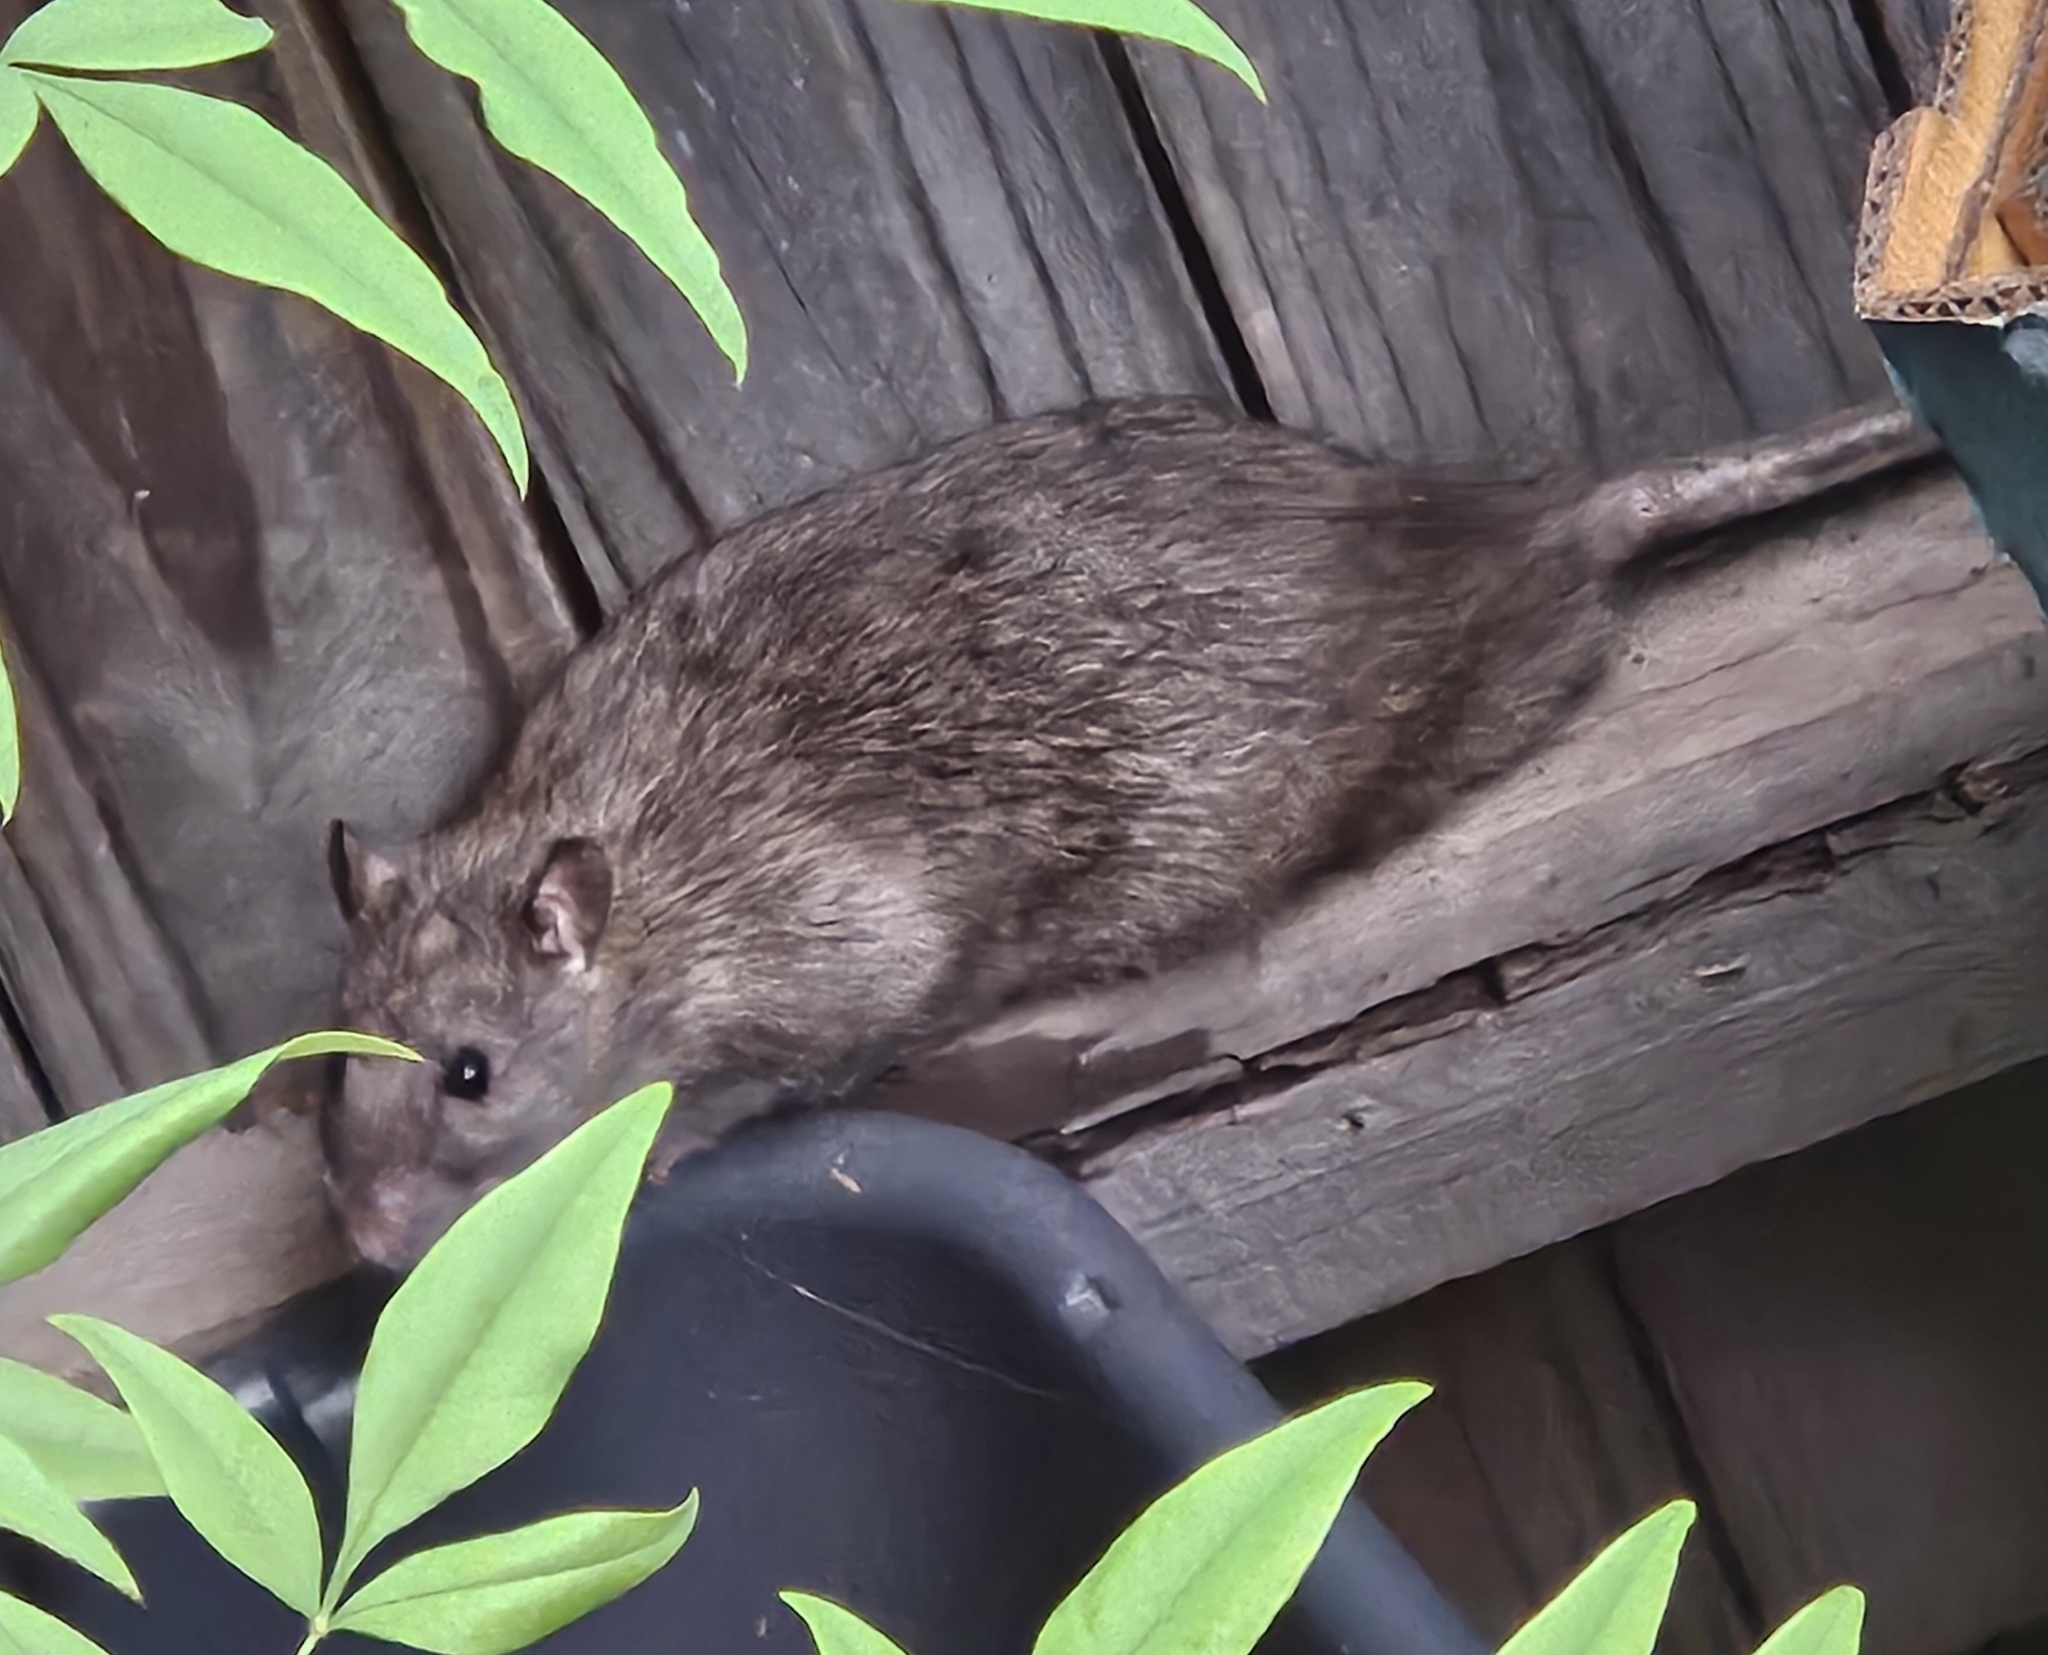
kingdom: Animalia
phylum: Chordata
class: Mammalia
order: Rodentia
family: Muridae
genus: Rattus
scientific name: Rattus rattus
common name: Black rat
